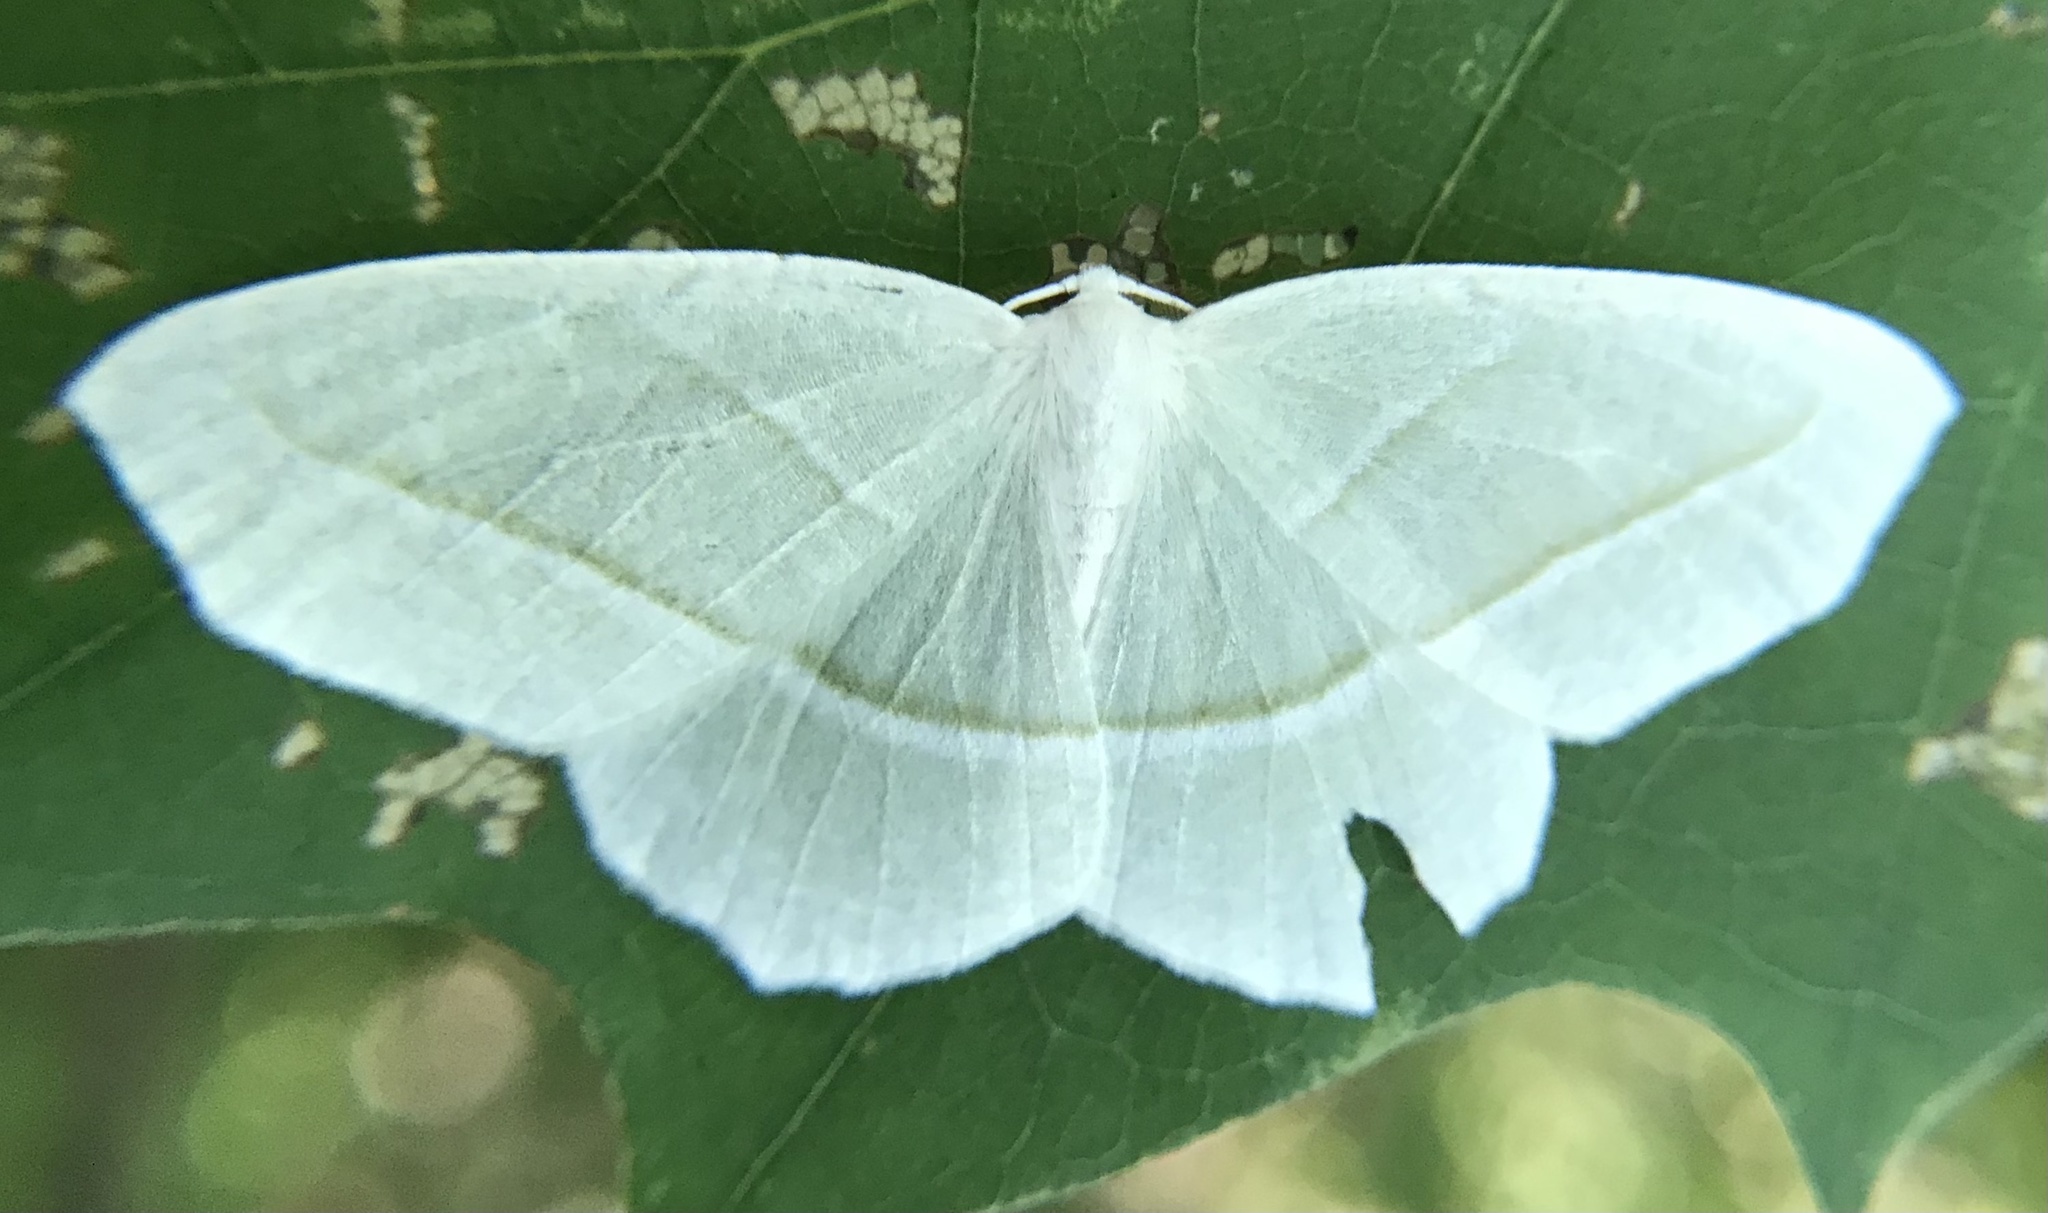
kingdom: Animalia
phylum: Arthropoda
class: Insecta
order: Lepidoptera
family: Geometridae
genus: Campaea
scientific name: Campaea perlata
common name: Fringed looper
